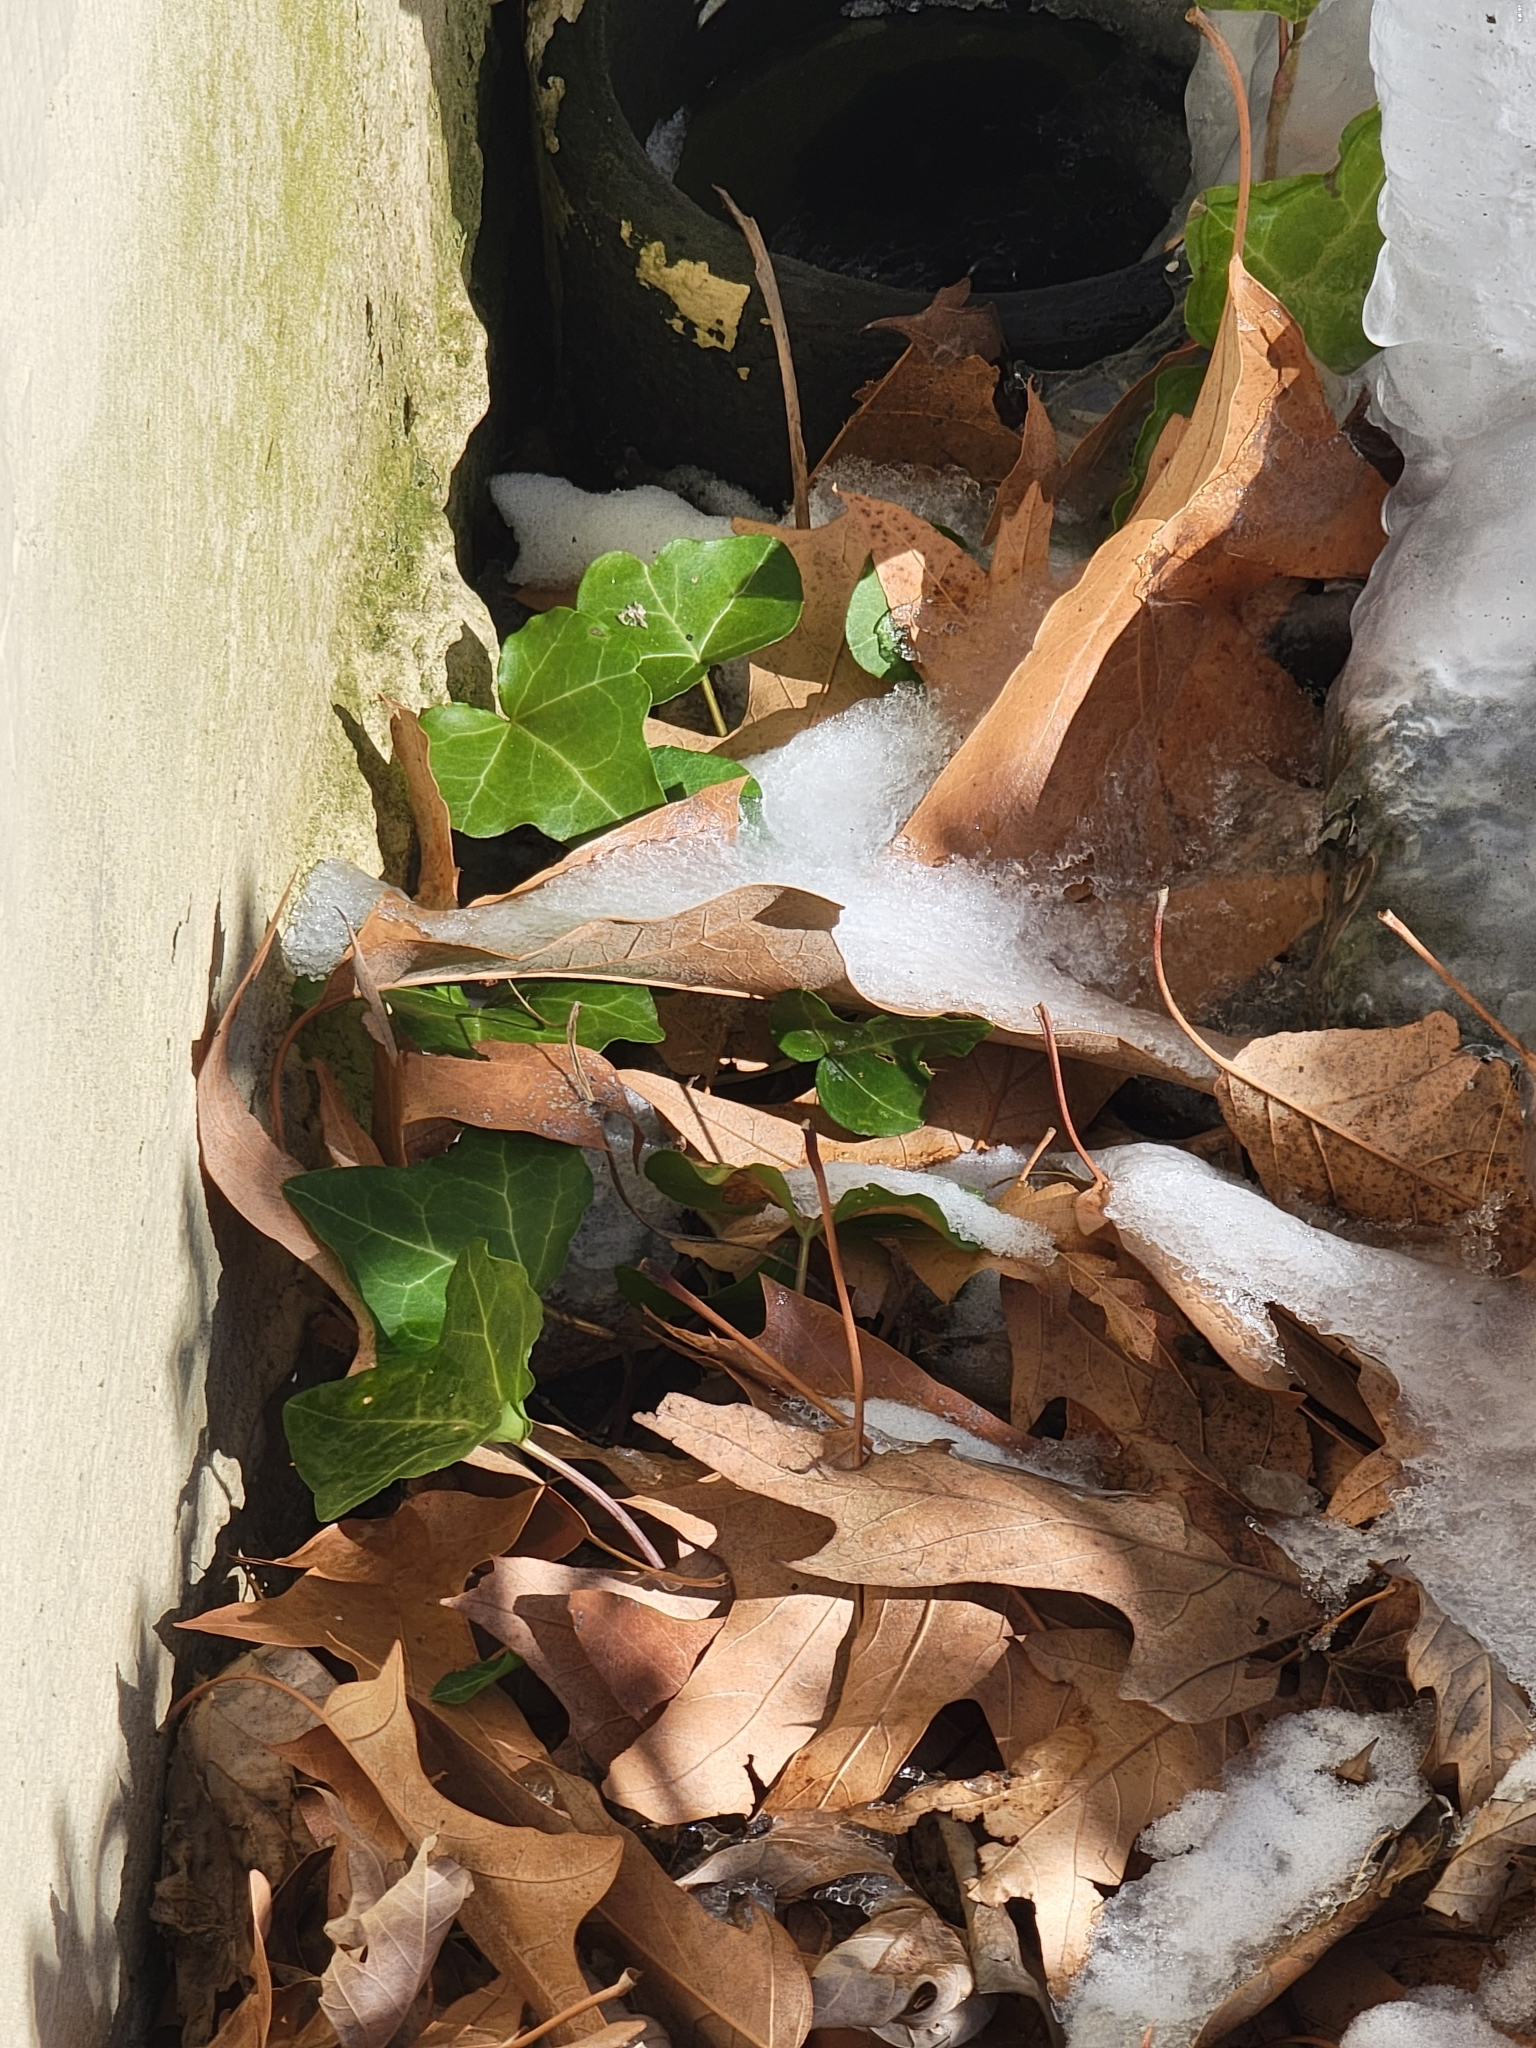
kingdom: Plantae
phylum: Tracheophyta
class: Magnoliopsida
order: Apiales
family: Araliaceae
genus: Hedera
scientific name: Hedera helix
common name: Ivy
